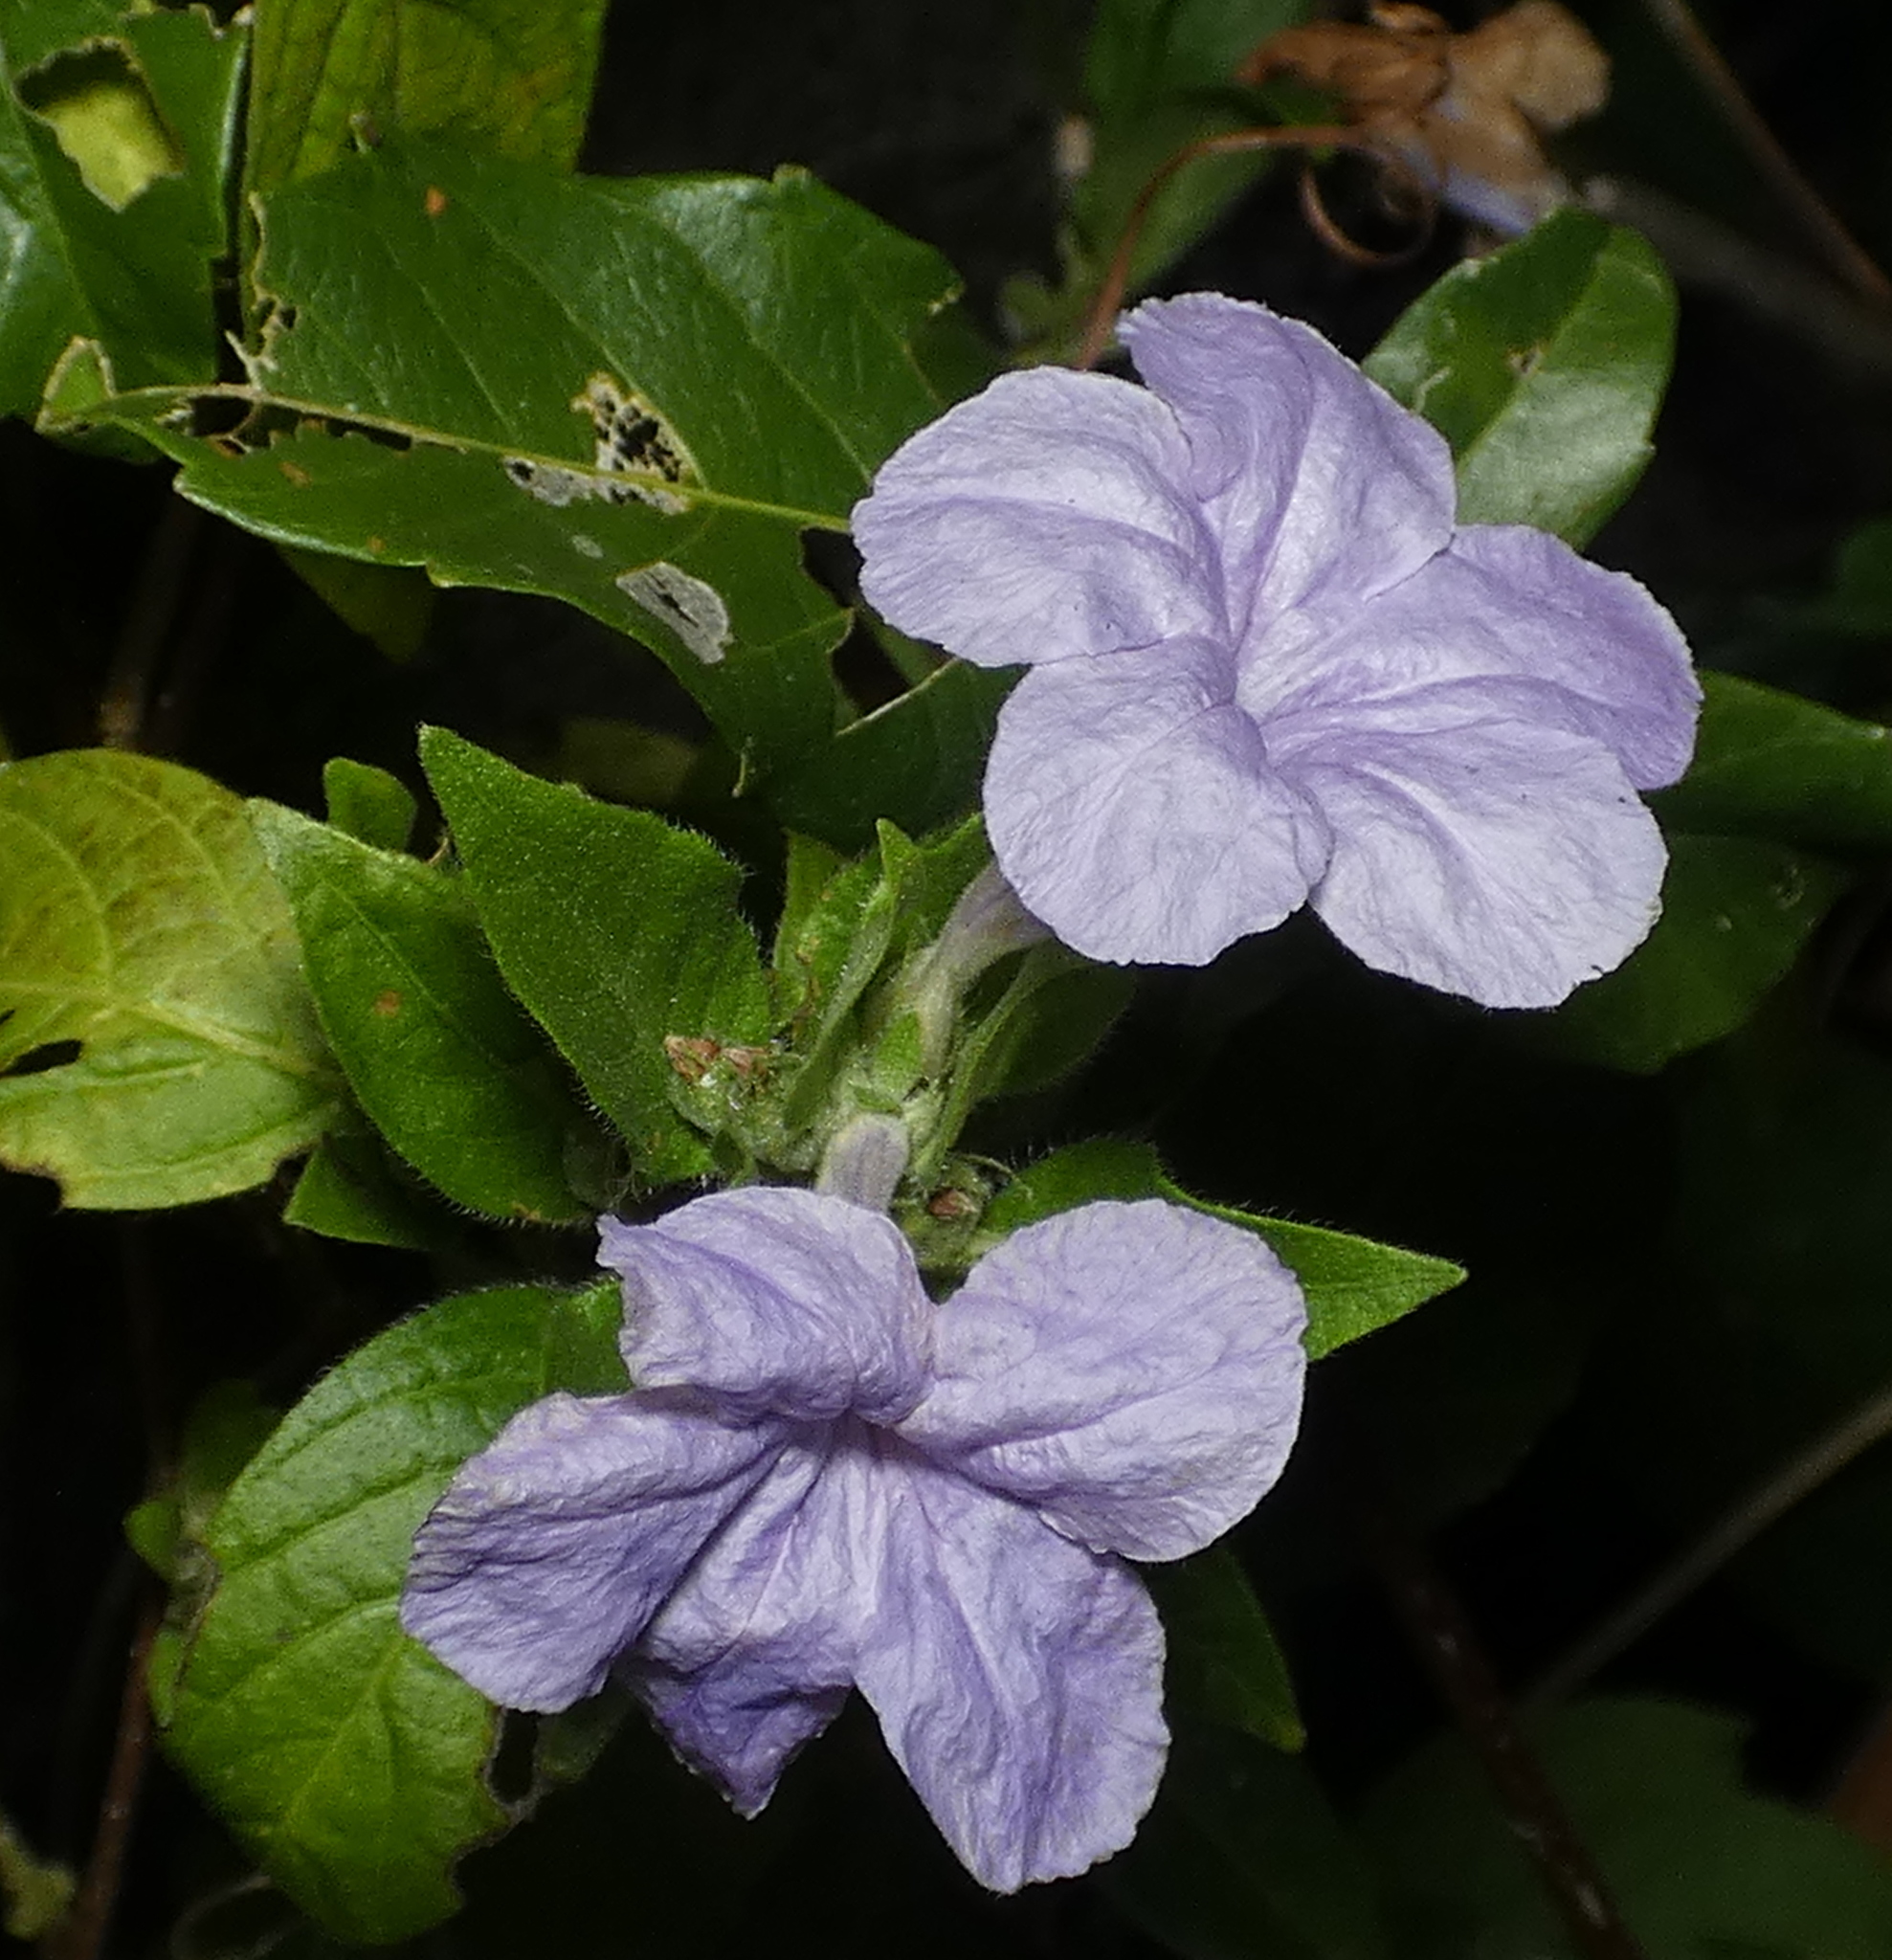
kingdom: Plantae
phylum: Tracheophyta
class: Magnoliopsida
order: Lamiales
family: Acanthaceae
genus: Ruellia
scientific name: Ruellia bahiensis
